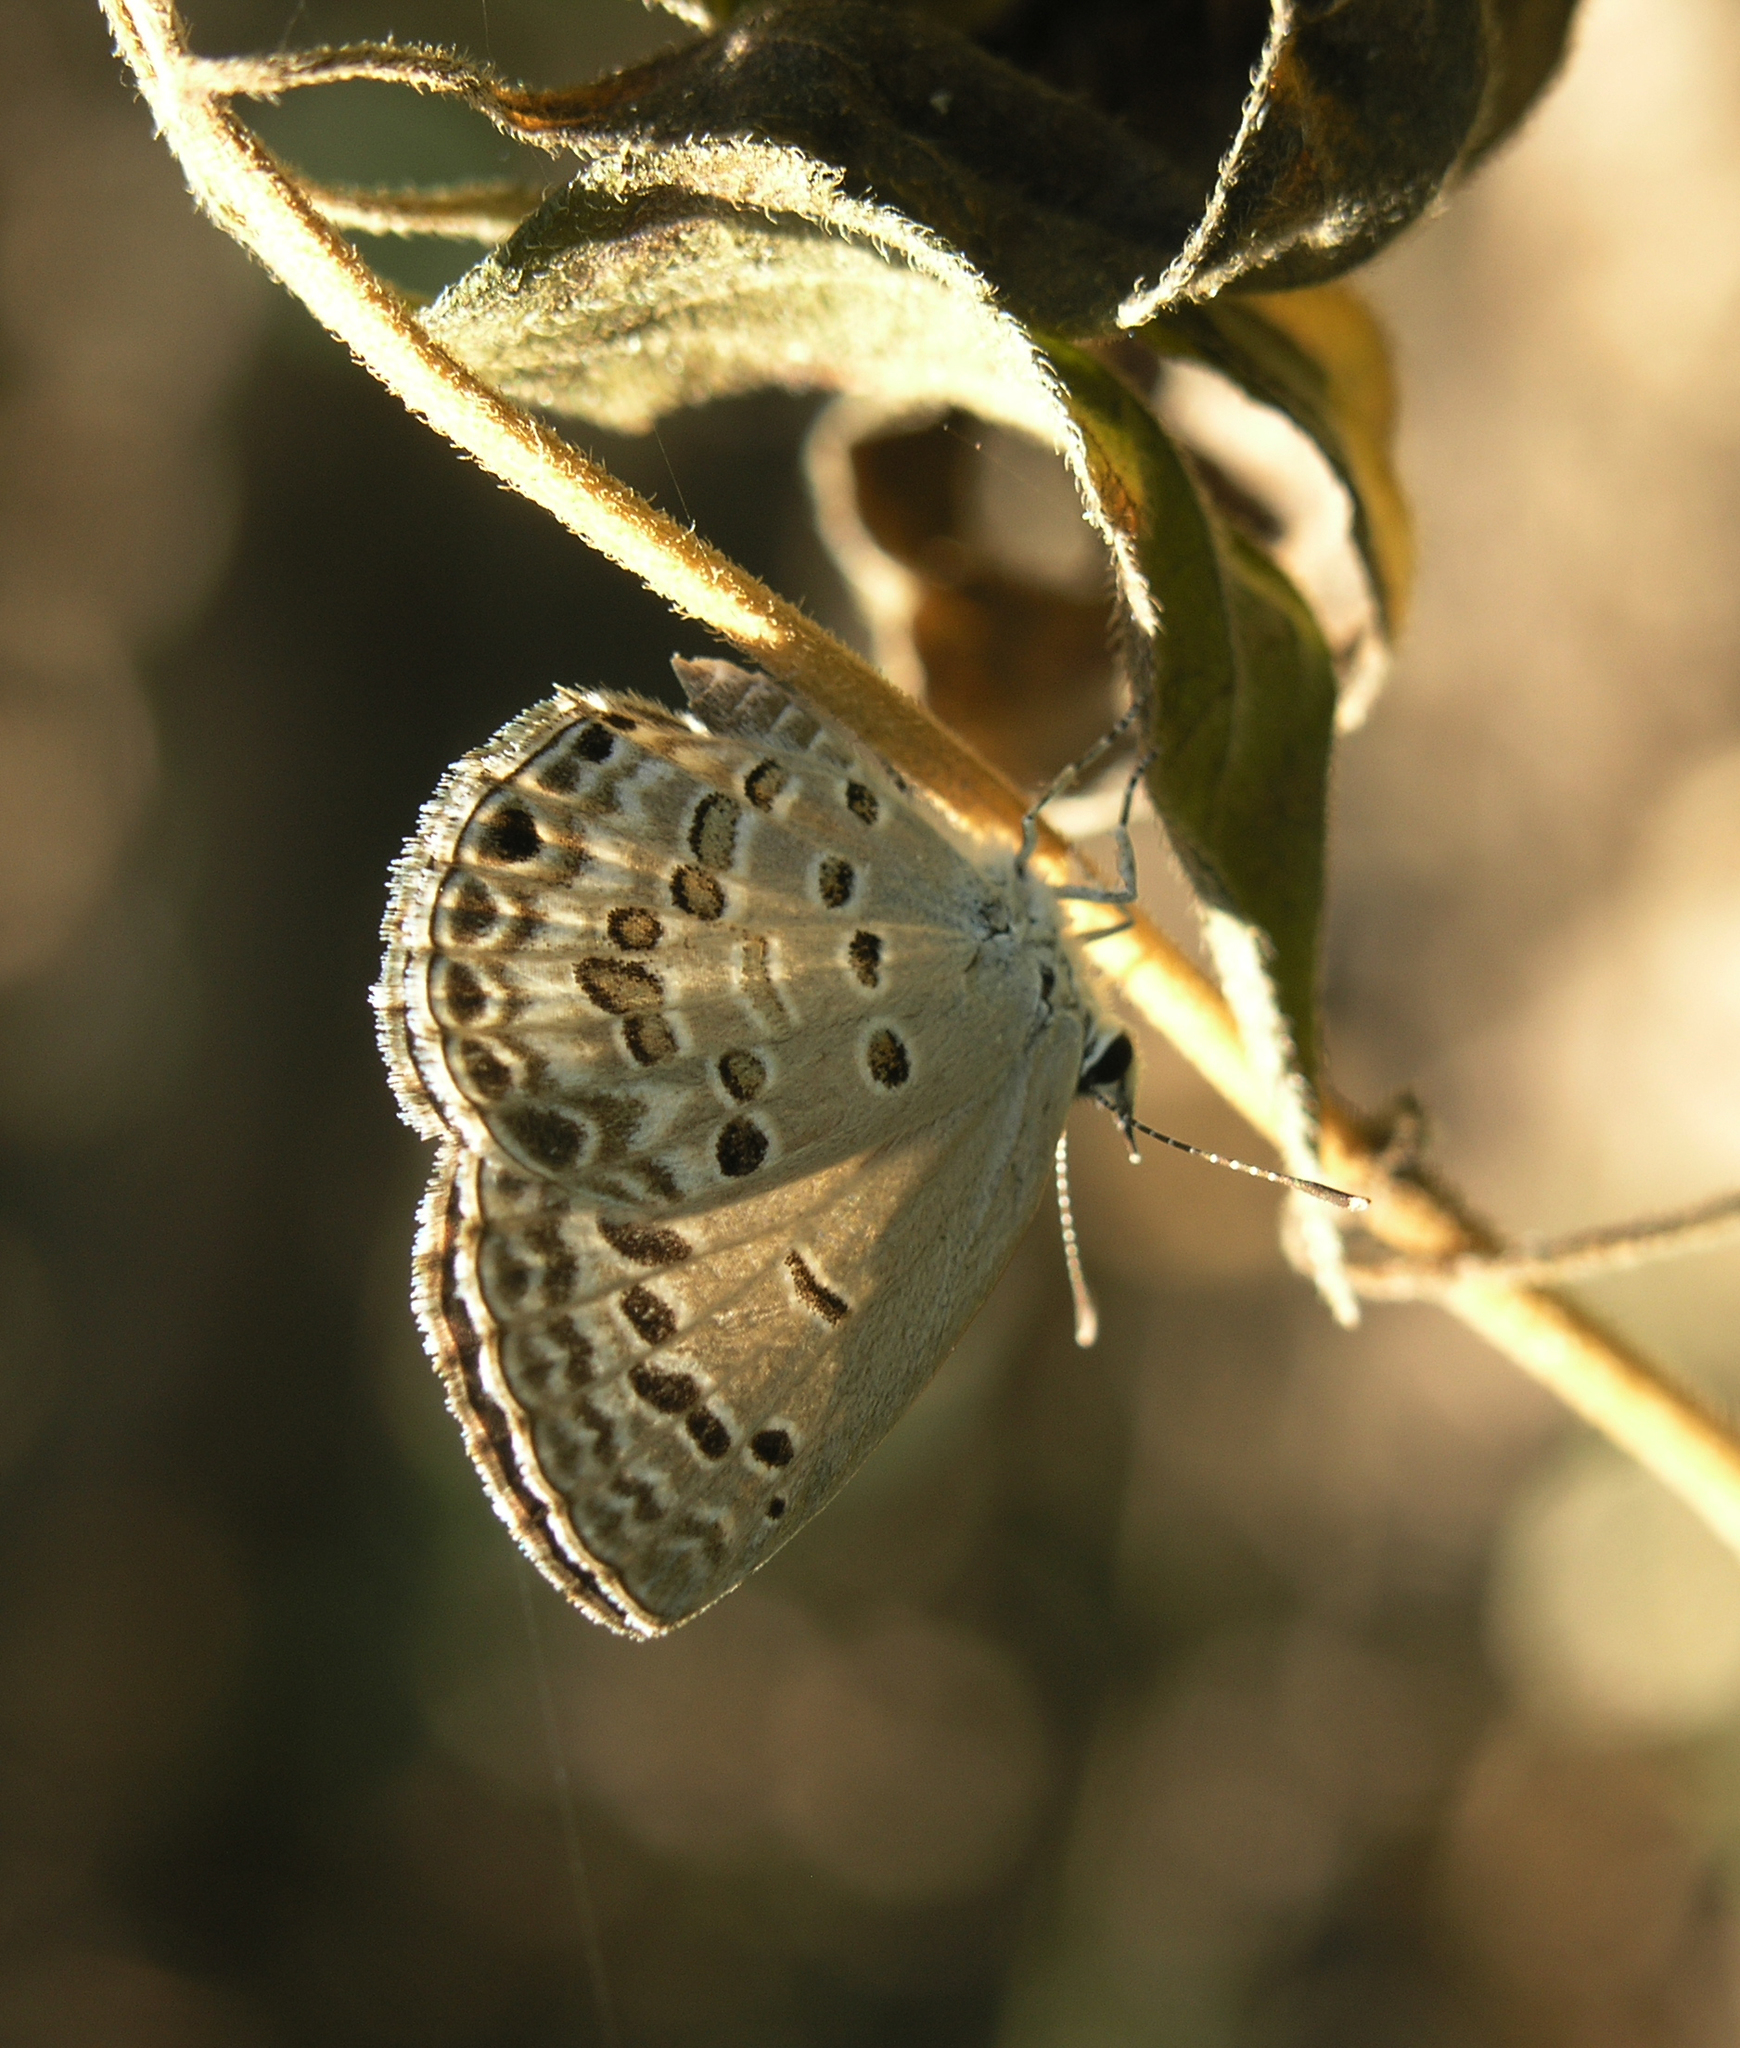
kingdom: Animalia
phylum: Arthropoda
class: Insecta
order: Lepidoptera
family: Lycaenidae
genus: Chilades
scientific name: Chilades laius
